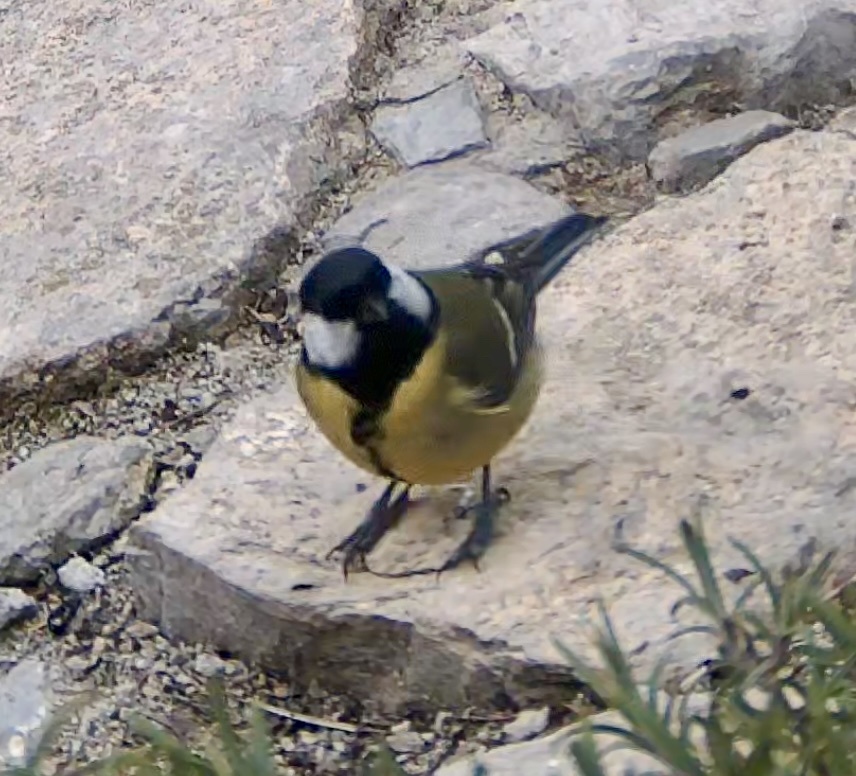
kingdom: Animalia
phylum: Chordata
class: Aves
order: Passeriformes
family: Paridae
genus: Parus
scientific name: Parus major
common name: Great tit
